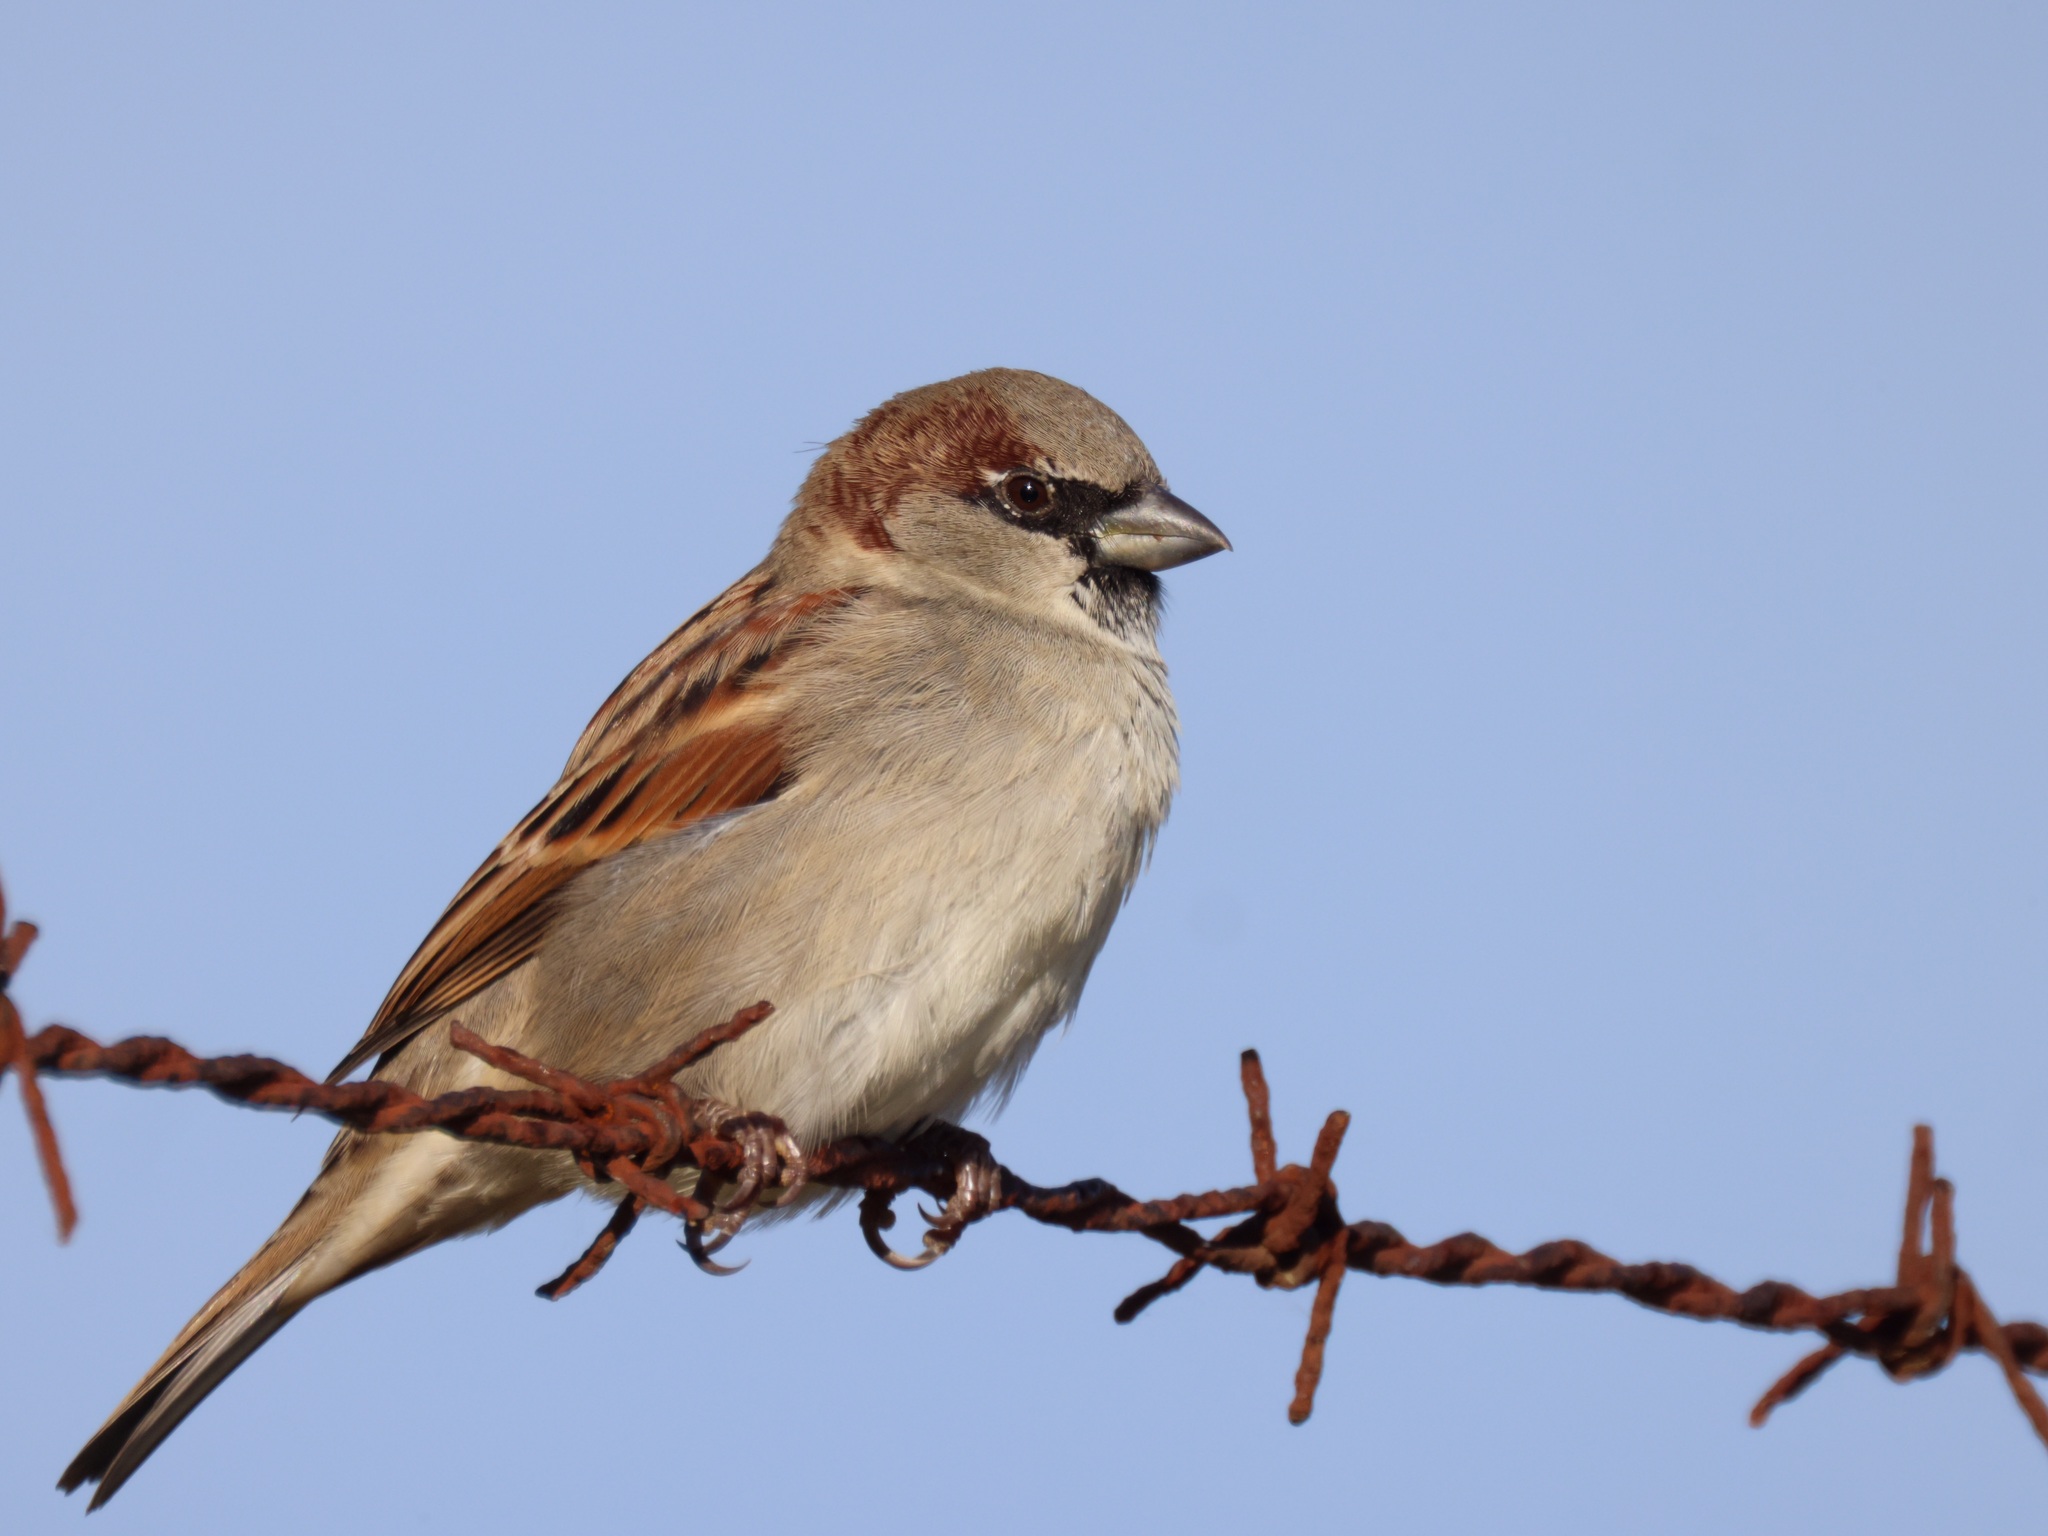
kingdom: Animalia
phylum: Chordata
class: Aves
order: Passeriformes
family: Passeridae
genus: Passer
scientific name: Passer domesticus
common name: House sparrow
